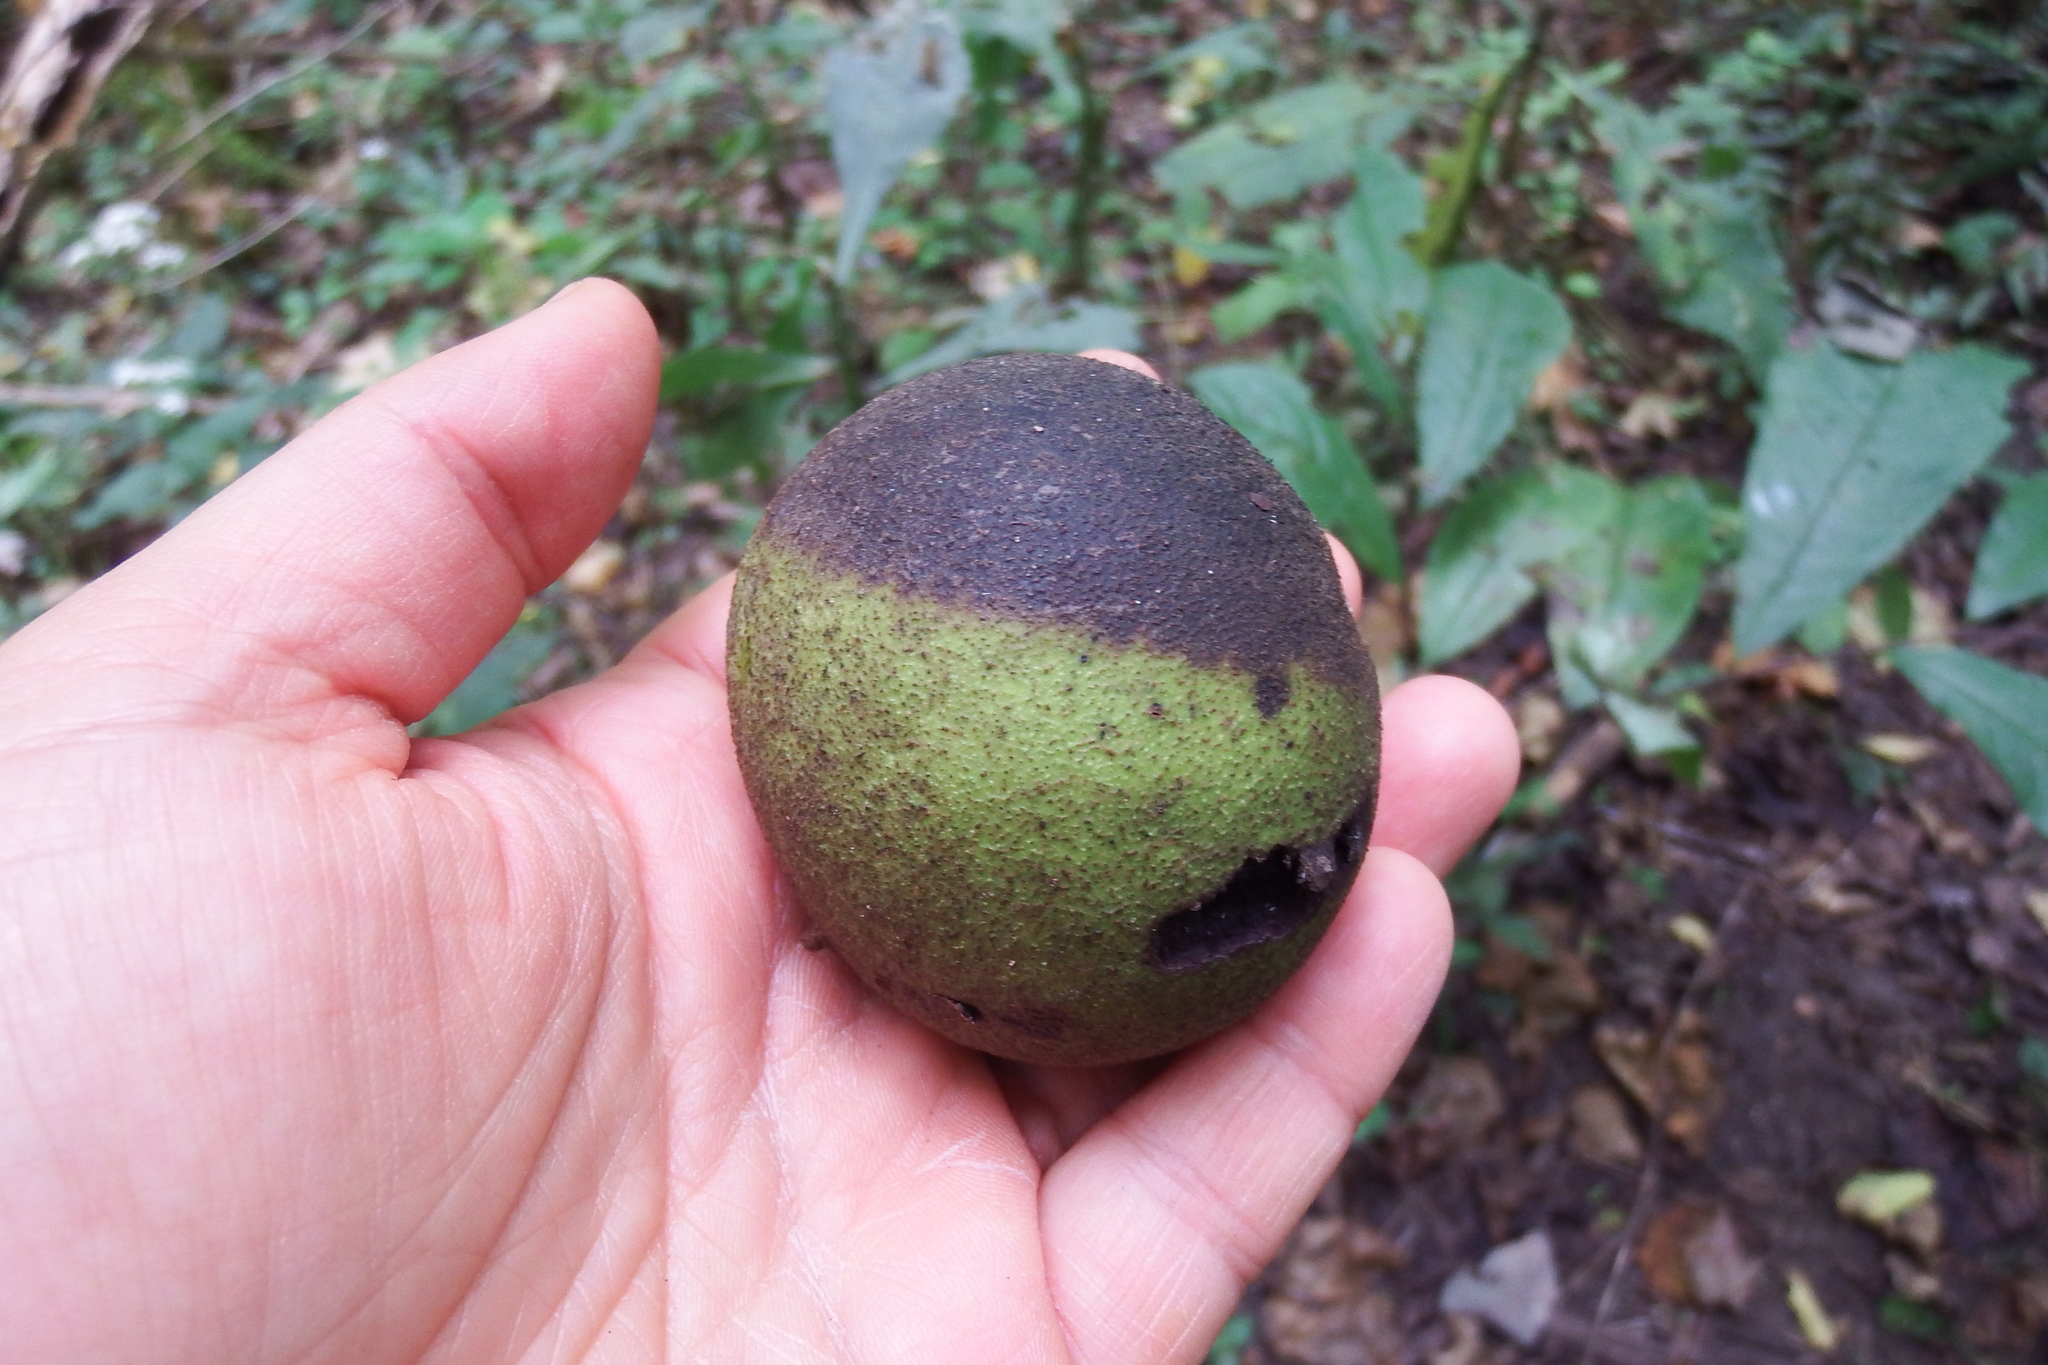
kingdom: Plantae
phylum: Tracheophyta
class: Magnoliopsida
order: Fagales
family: Juglandaceae
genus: Juglans
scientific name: Juglans nigra
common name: Black walnut
